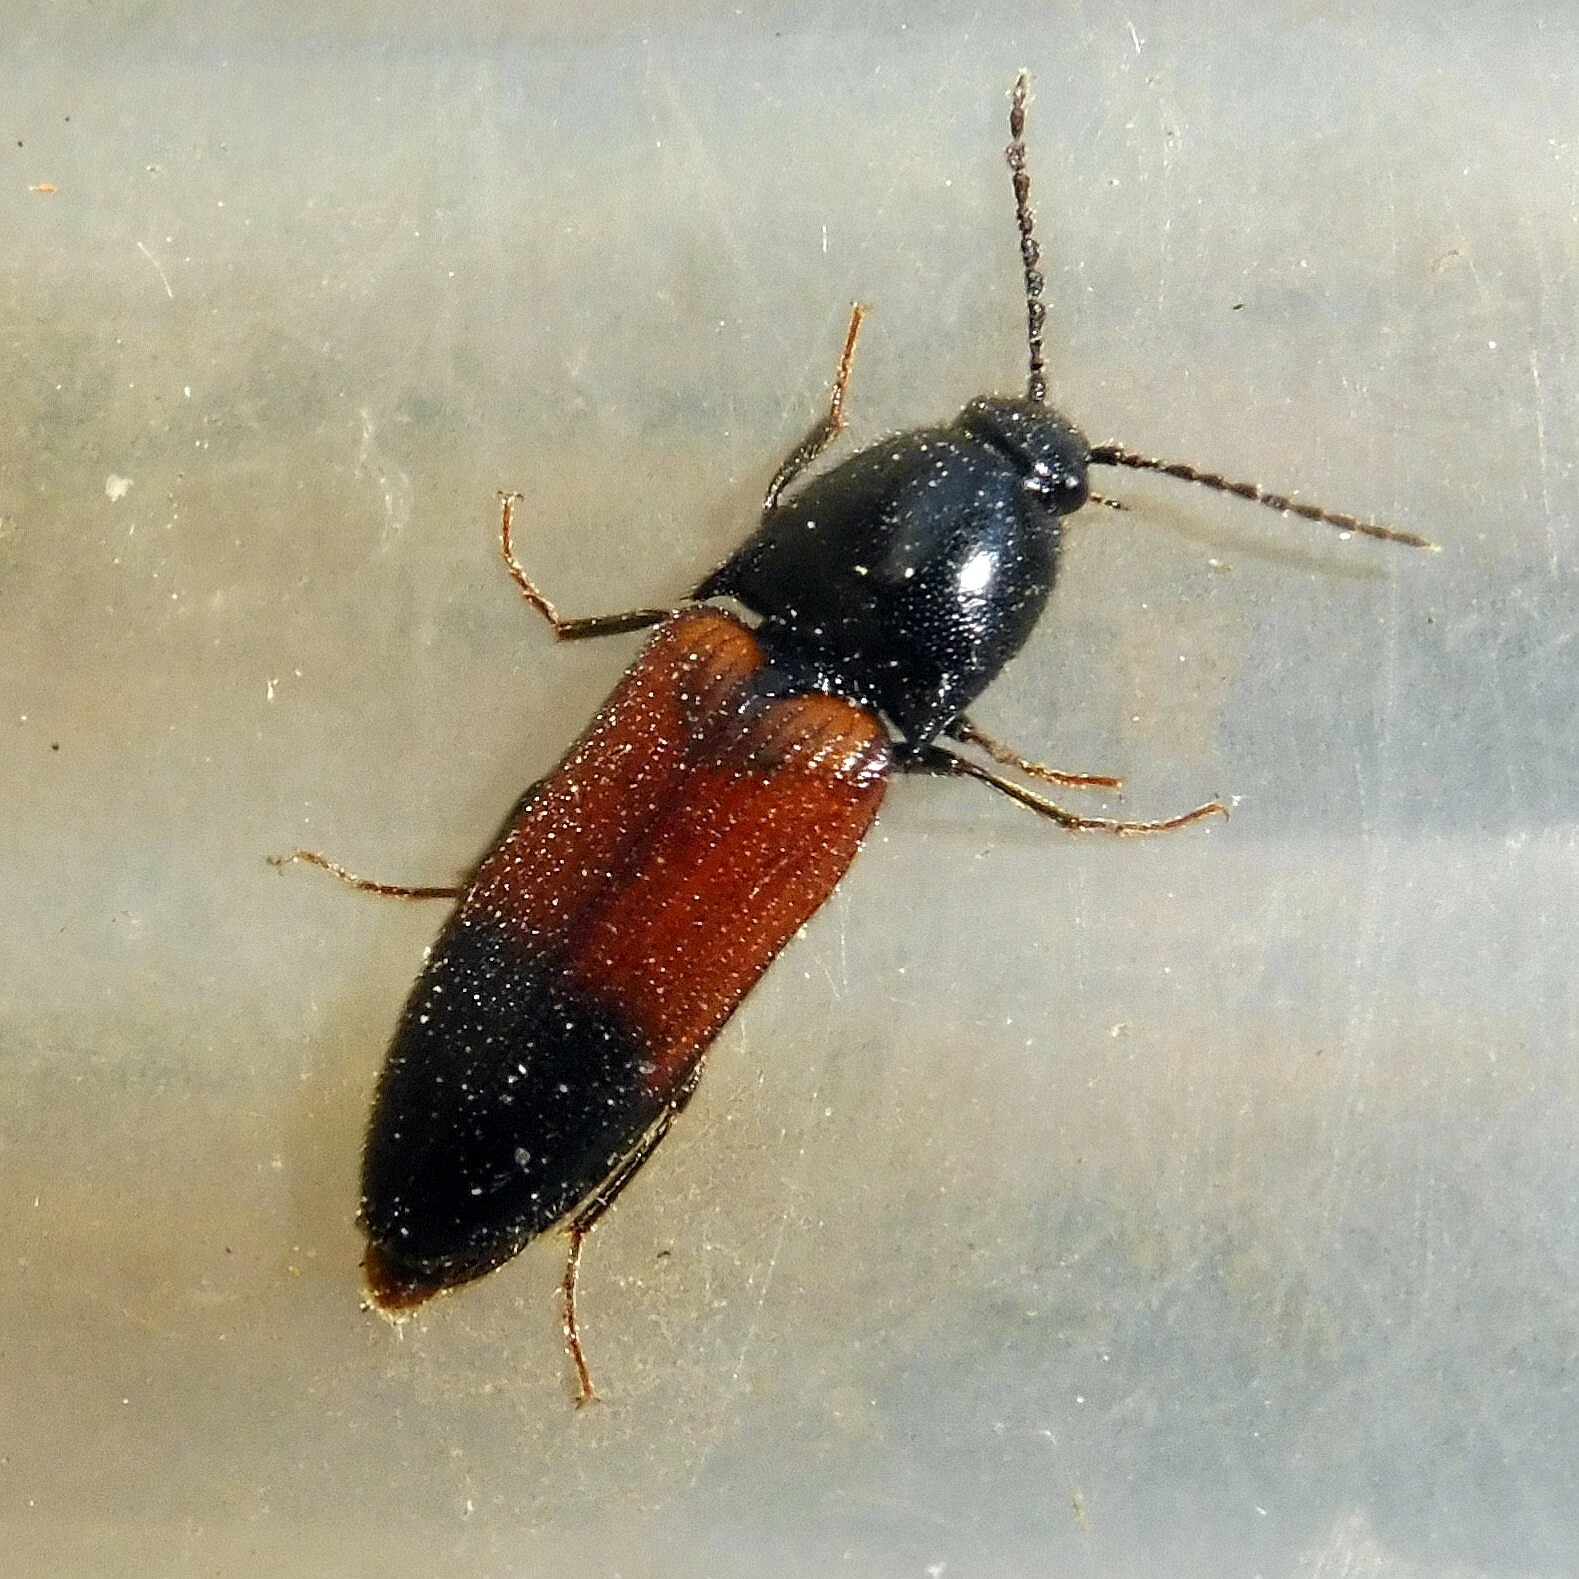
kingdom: Animalia
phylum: Arthropoda
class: Insecta
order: Coleoptera
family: Elateridae
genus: Ampedus
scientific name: Ampedus balteatus
